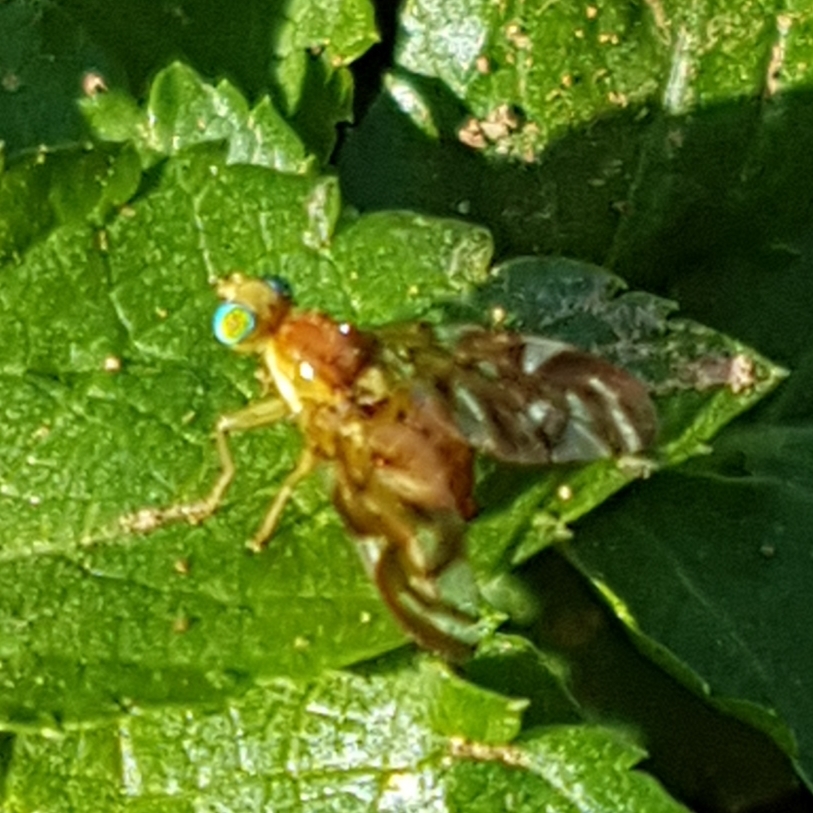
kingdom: Animalia
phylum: Arthropoda
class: Insecta
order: Diptera
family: Tephritidae
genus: Euleia
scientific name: Euleia heraclei
